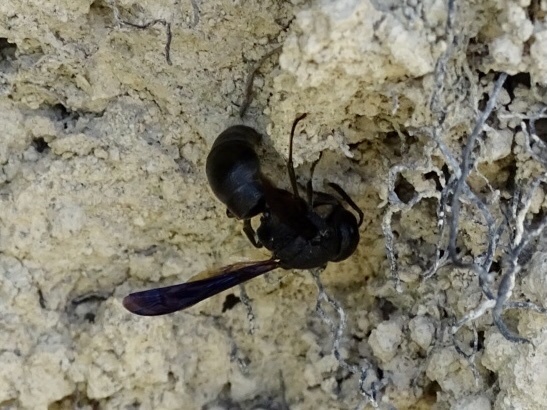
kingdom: Animalia
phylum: Arthropoda
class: Insecta
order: Hymenoptera
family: Eumenidae
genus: Orancistrocerus
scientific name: Orancistrocerus aterrimus
